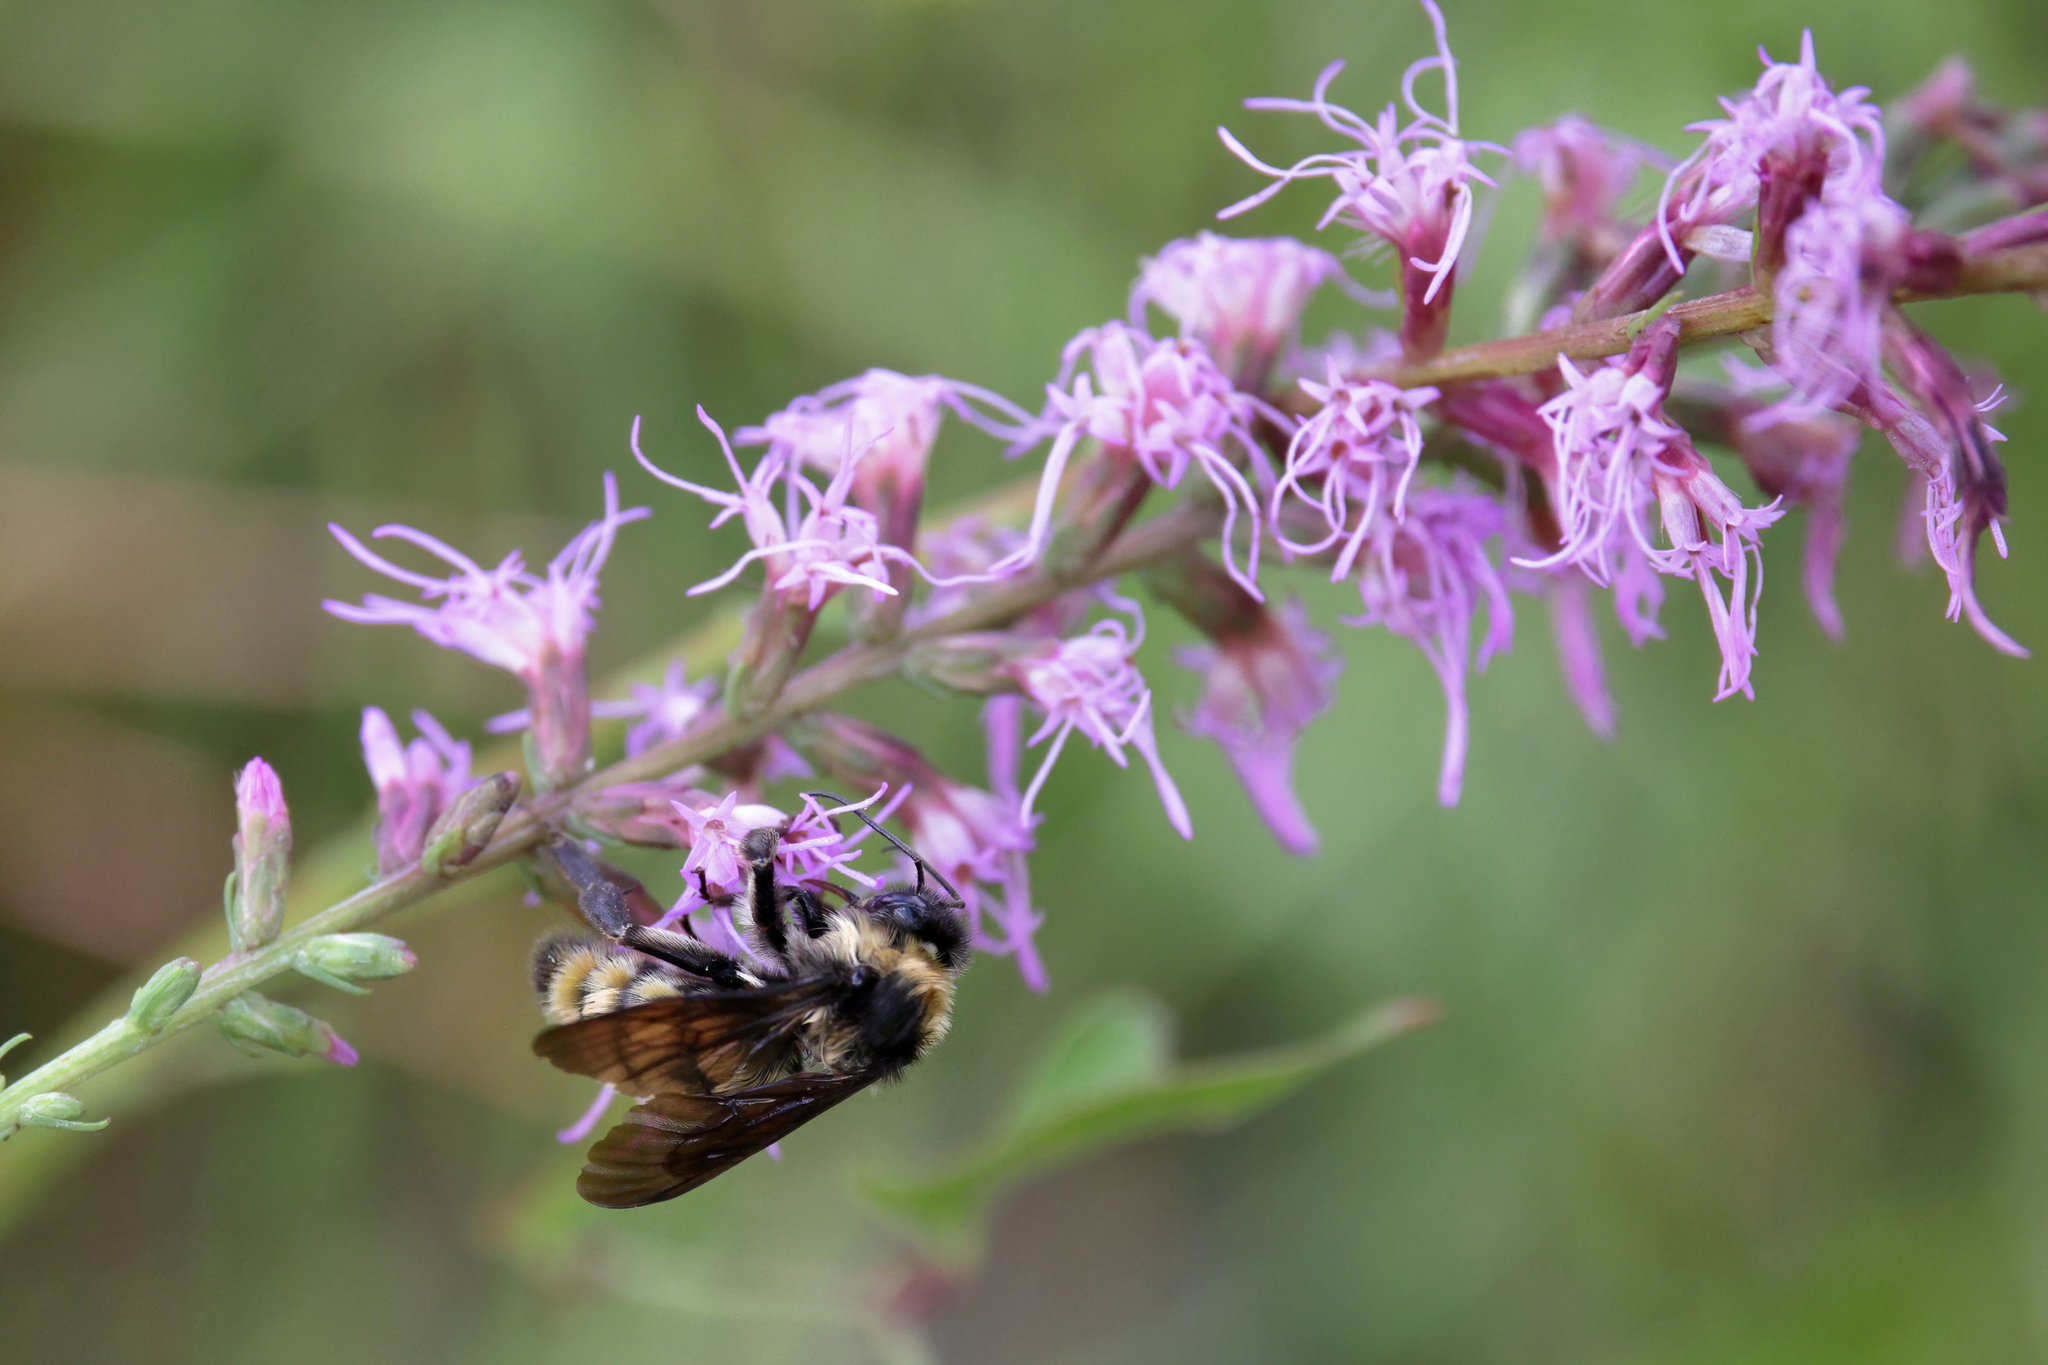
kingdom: Animalia
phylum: Arthropoda
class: Insecta
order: Hymenoptera
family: Apidae
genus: Bombus
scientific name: Bombus pensylvanicus
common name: Bumble bee
